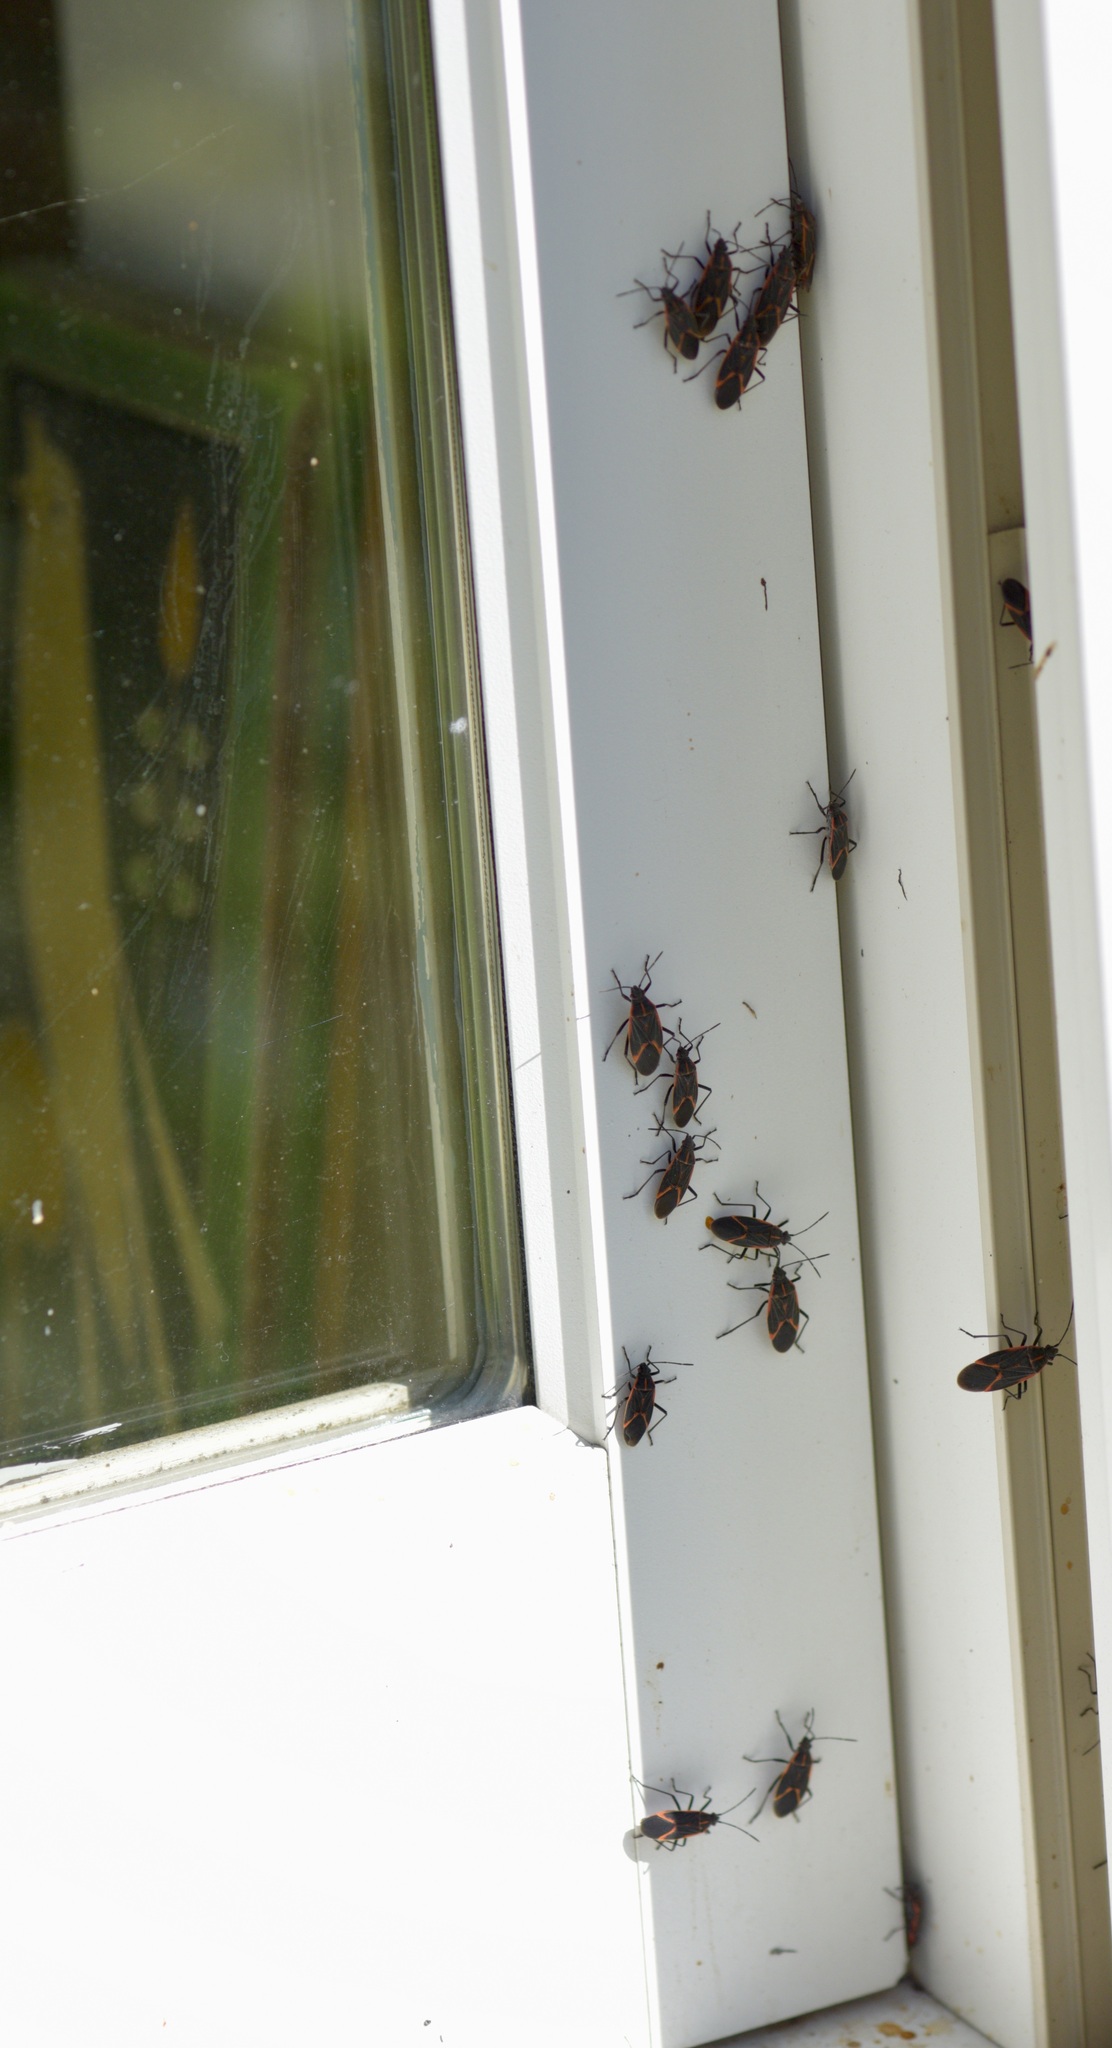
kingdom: Animalia
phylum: Arthropoda
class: Insecta
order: Hemiptera
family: Rhopalidae
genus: Boisea
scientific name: Boisea trivittata
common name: Boxelder bug
